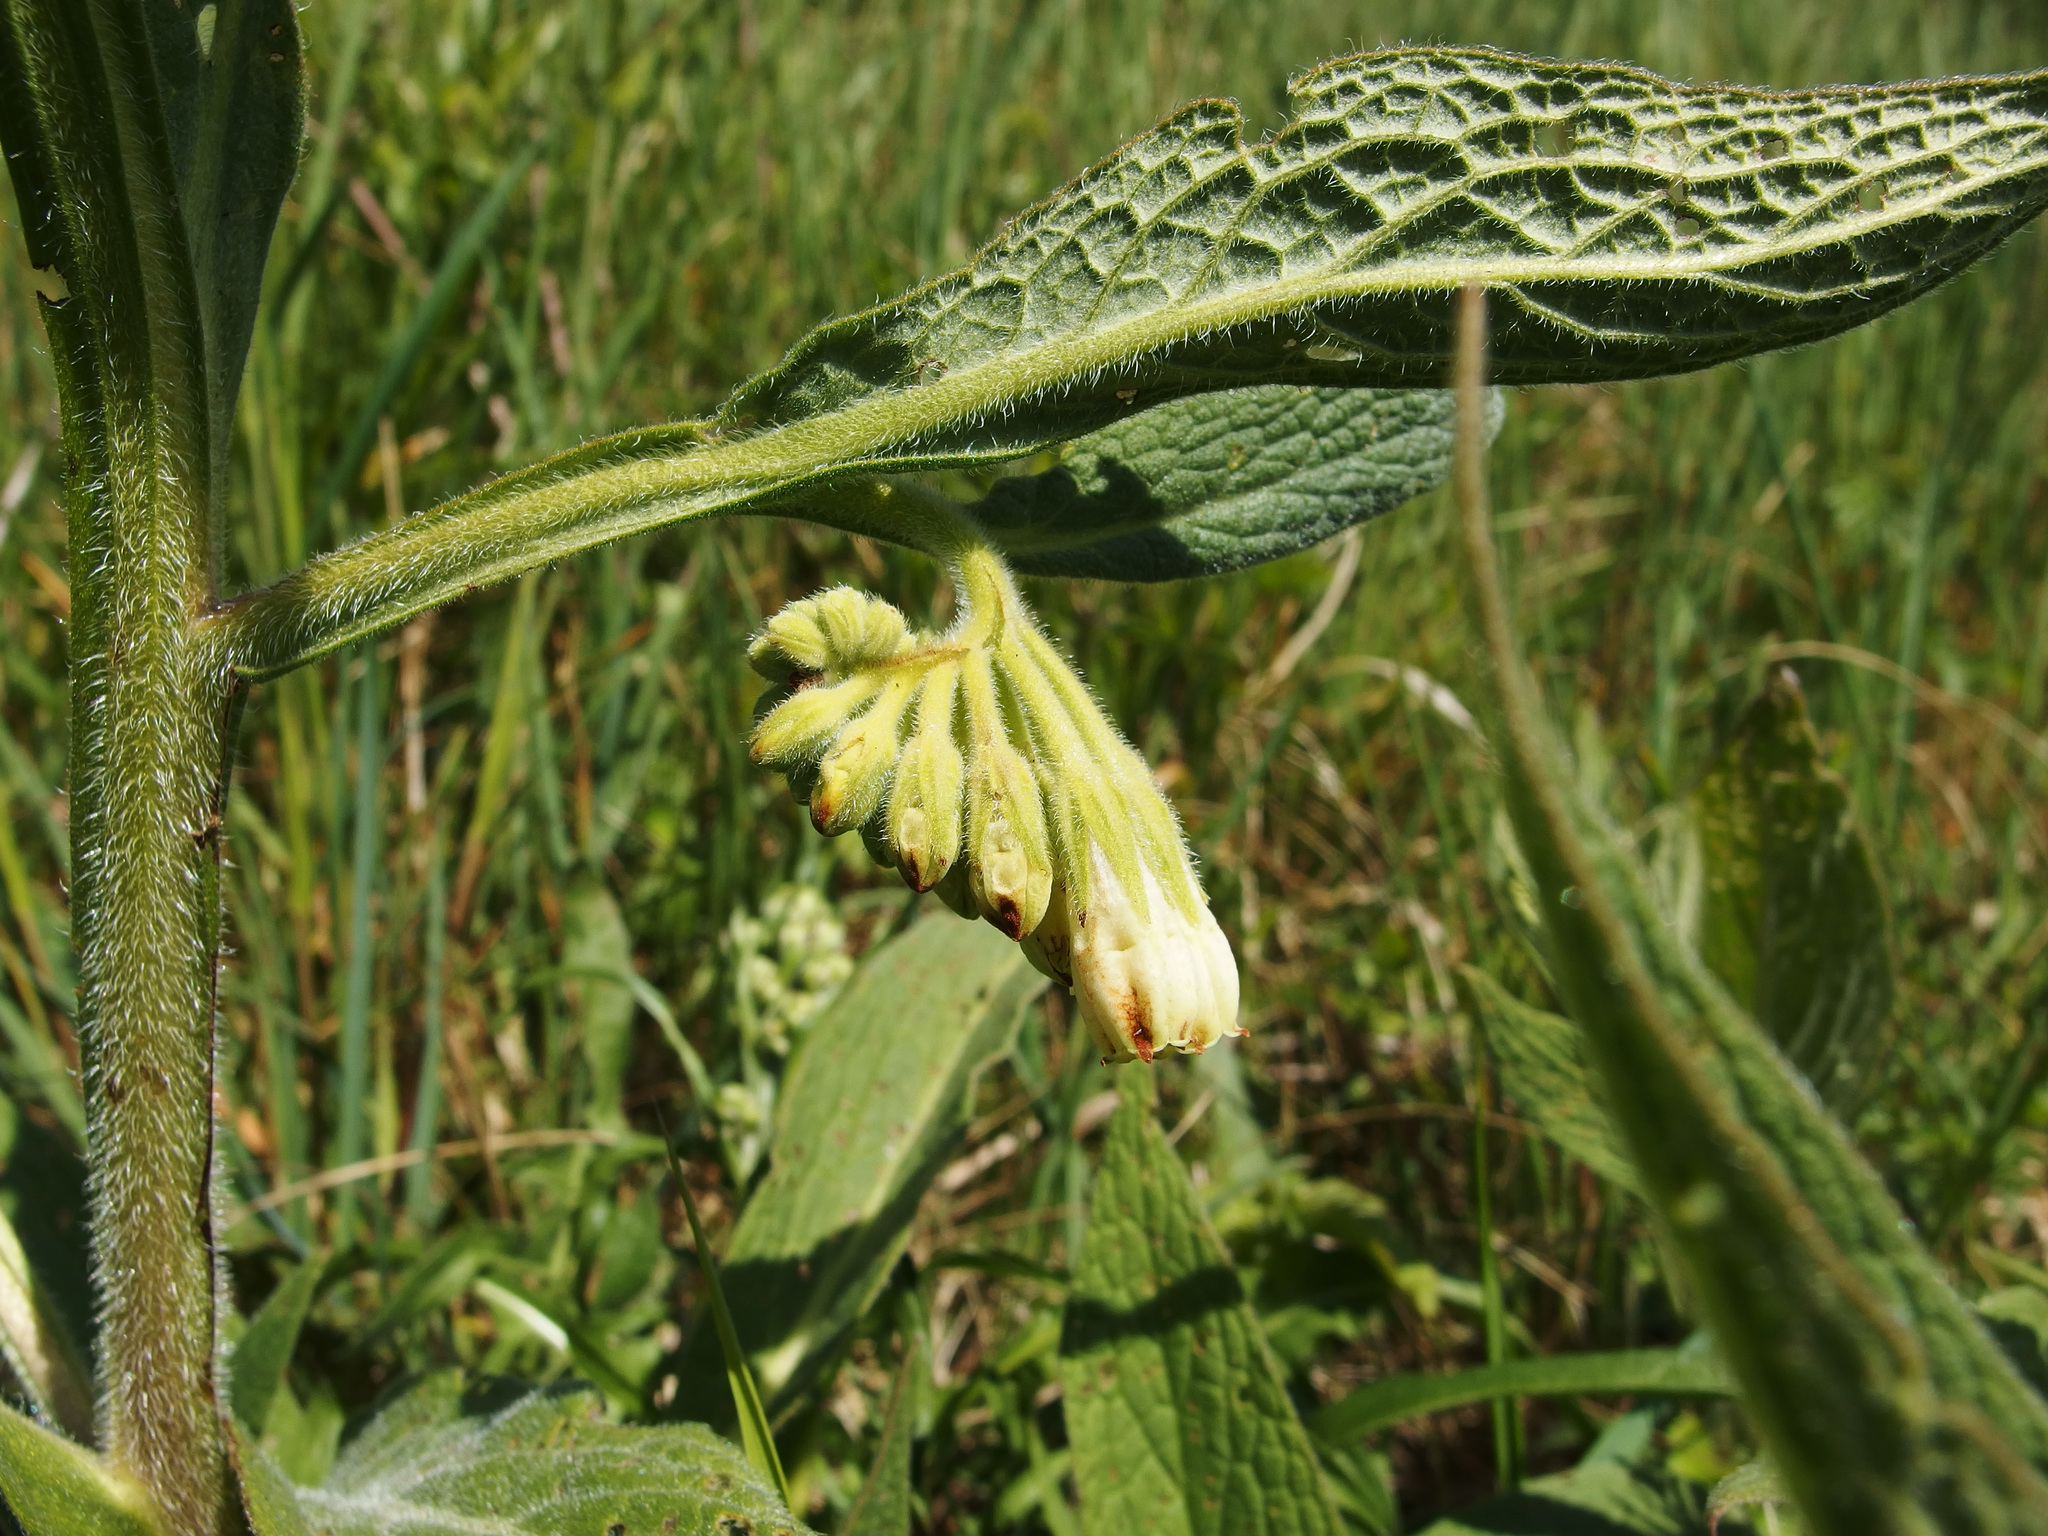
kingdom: Plantae
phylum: Tracheophyta
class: Magnoliopsida
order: Boraginales
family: Boraginaceae
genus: Symphytum
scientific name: Symphytum officinale
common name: Common comfrey
